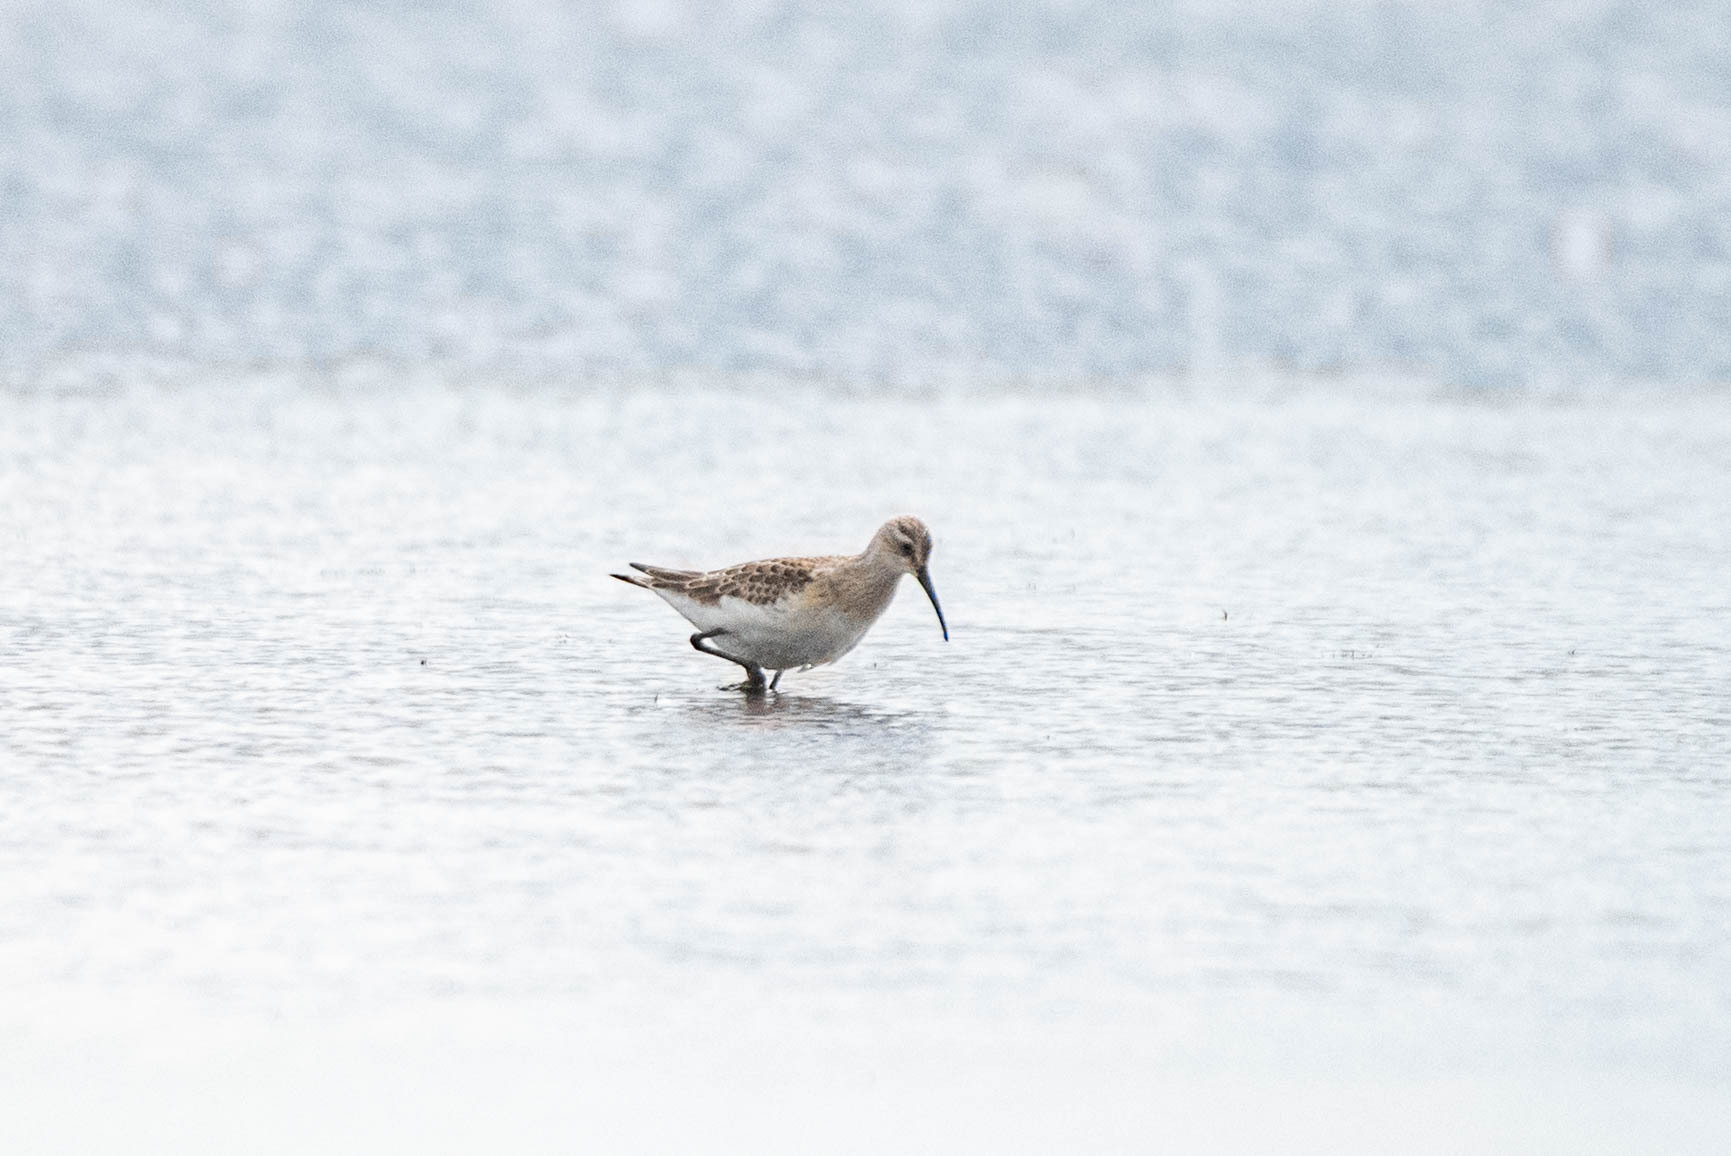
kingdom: Animalia
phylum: Chordata
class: Aves
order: Charadriiformes
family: Scolopacidae
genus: Calidris
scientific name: Calidris ferruginea
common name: Curlew sandpiper
